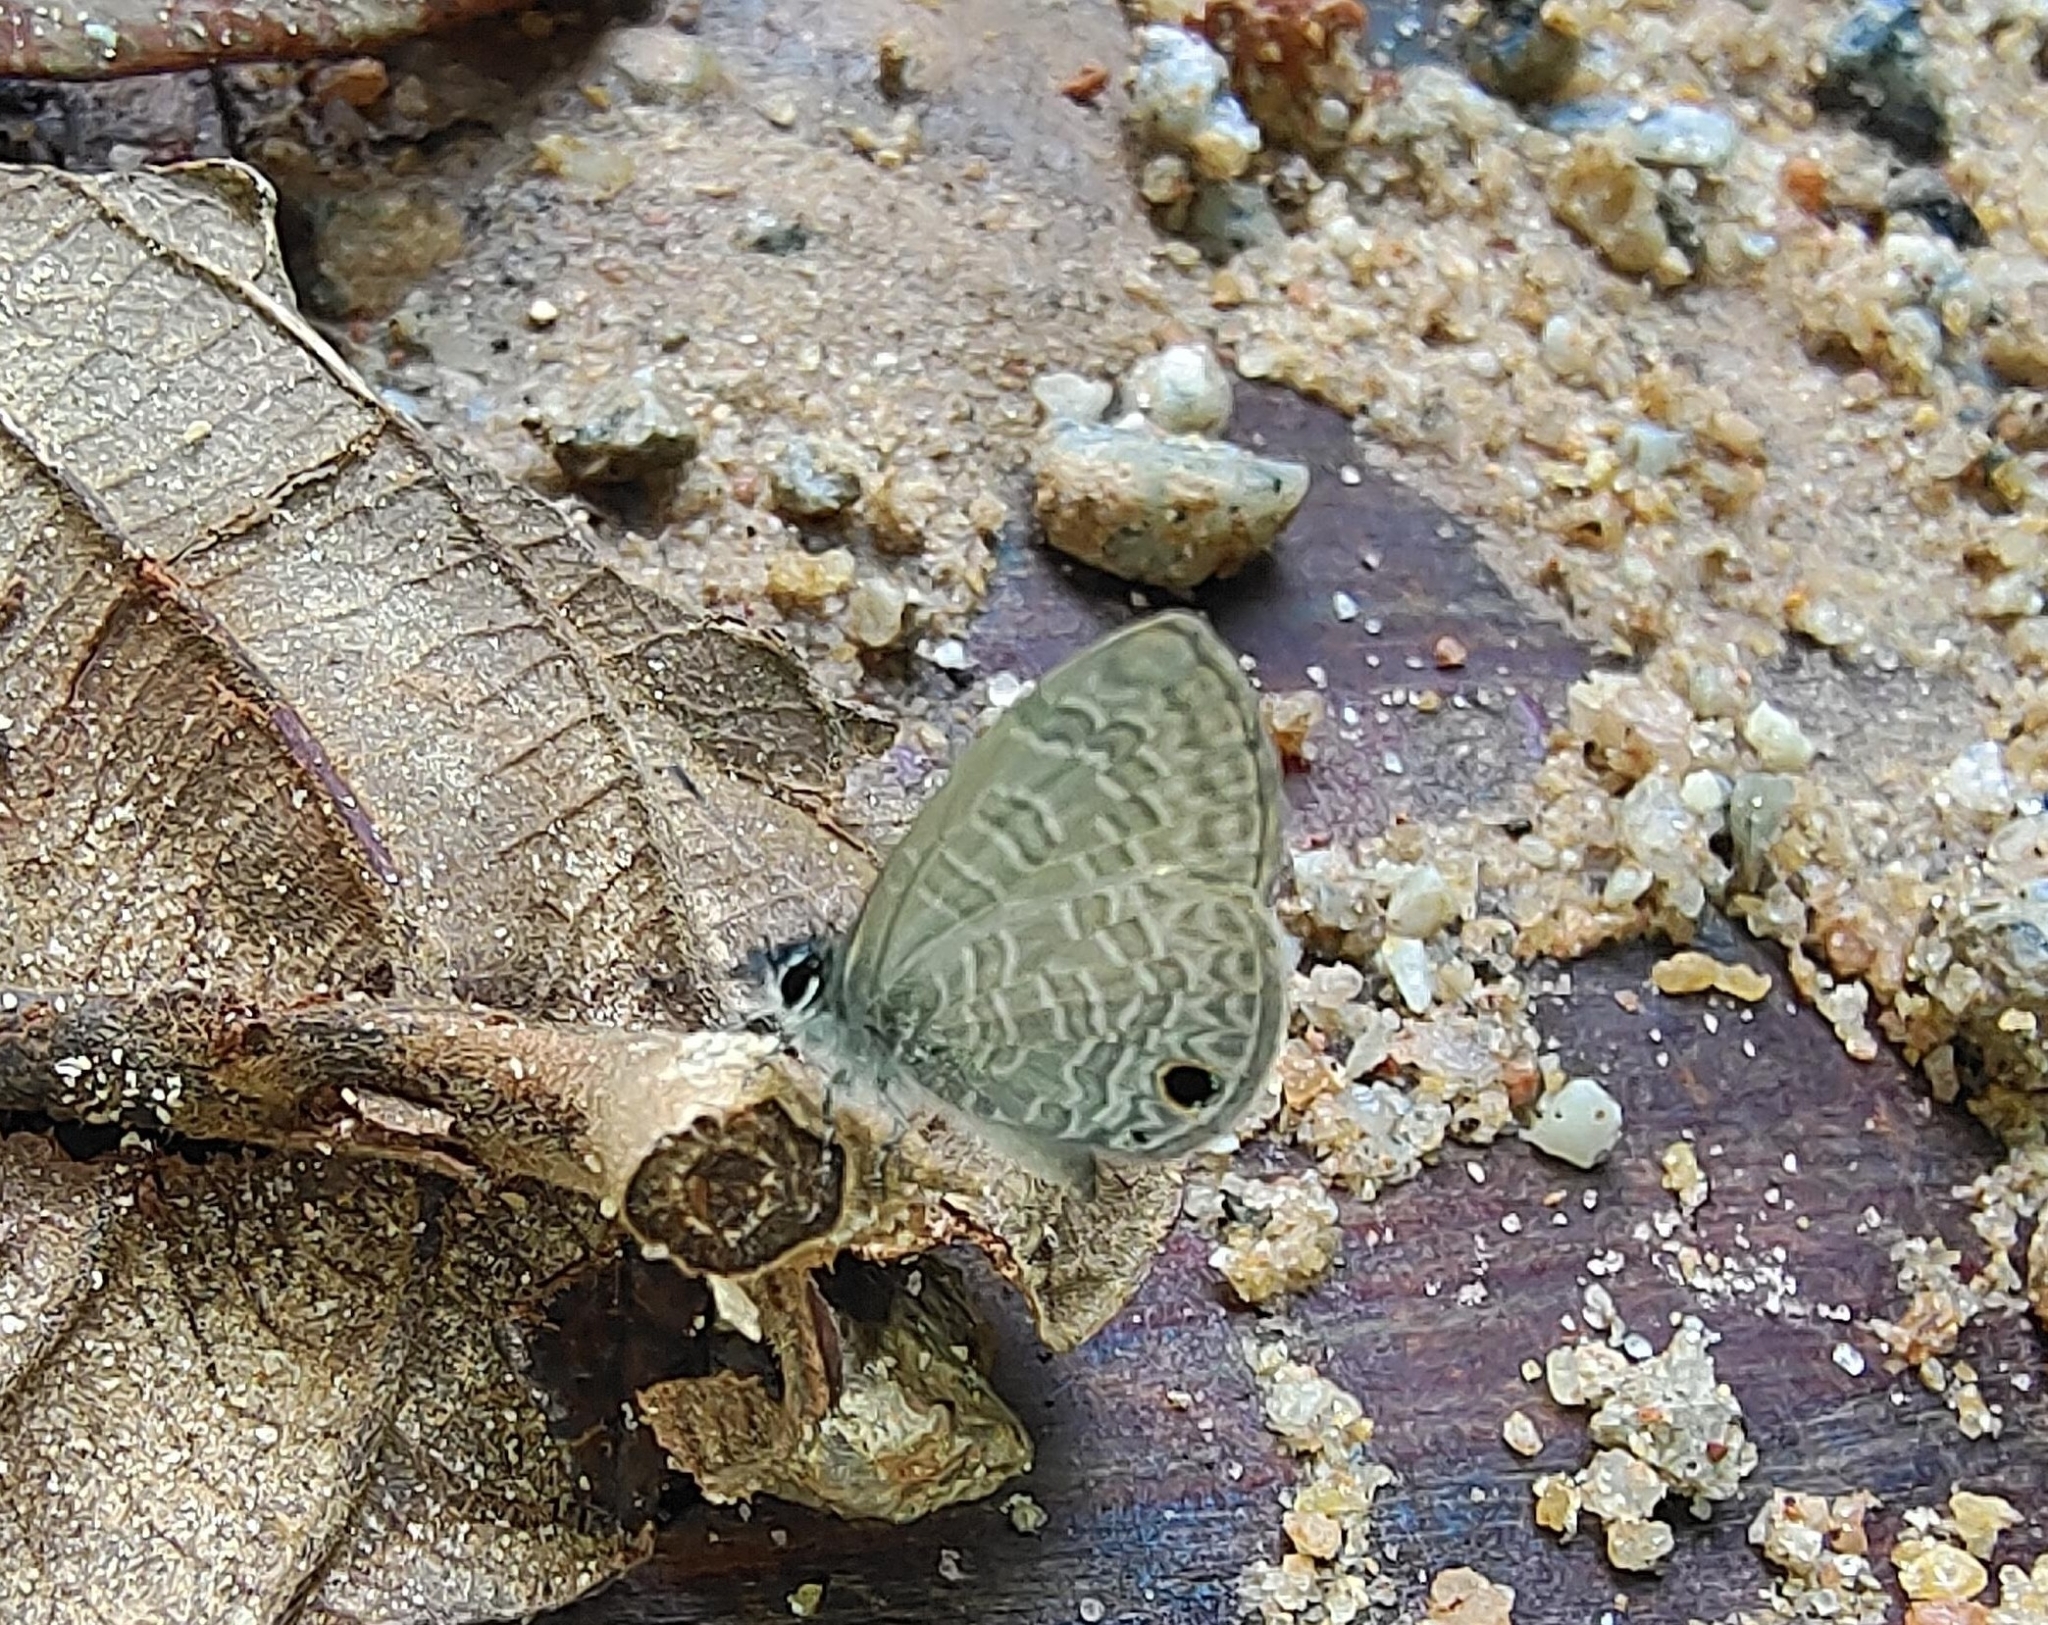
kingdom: Animalia
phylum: Arthropoda
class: Insecta
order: Lepidoptera
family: Lycaenidae
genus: Prosotas
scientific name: Prosotas dubiosa
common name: Tailless lineblue
